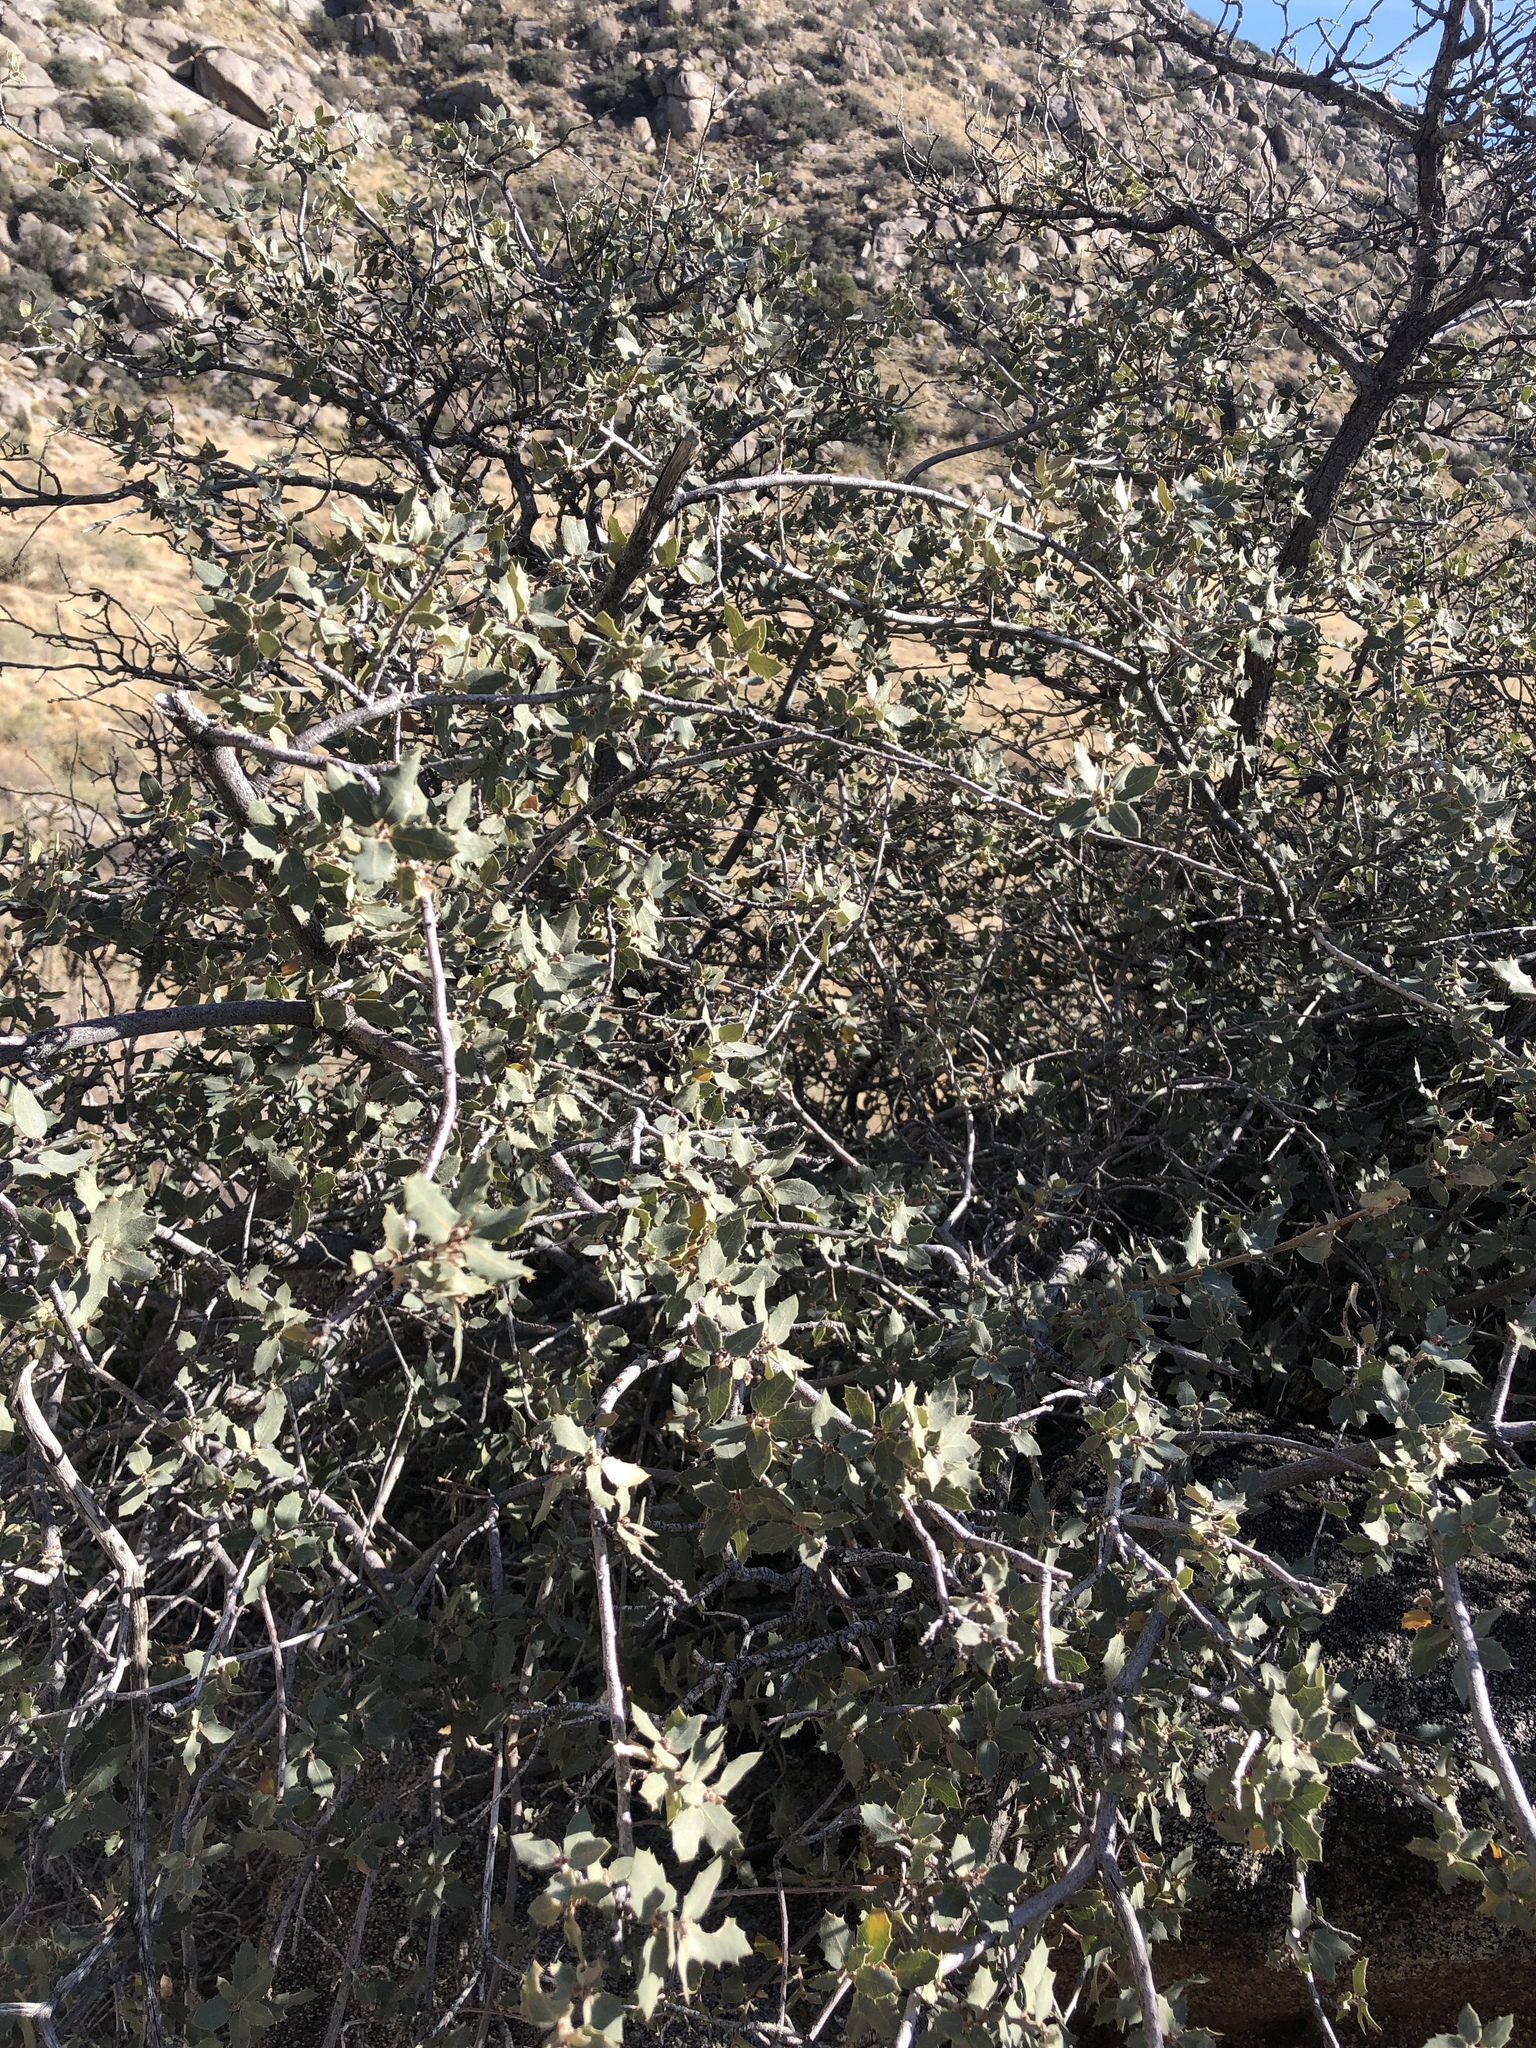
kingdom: Plantae
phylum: Tracheophyta
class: Magnoliopsida
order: Fagales
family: Fagaceae
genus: Quercus
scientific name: Quercus turbinella
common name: Sonoran scrub oak
